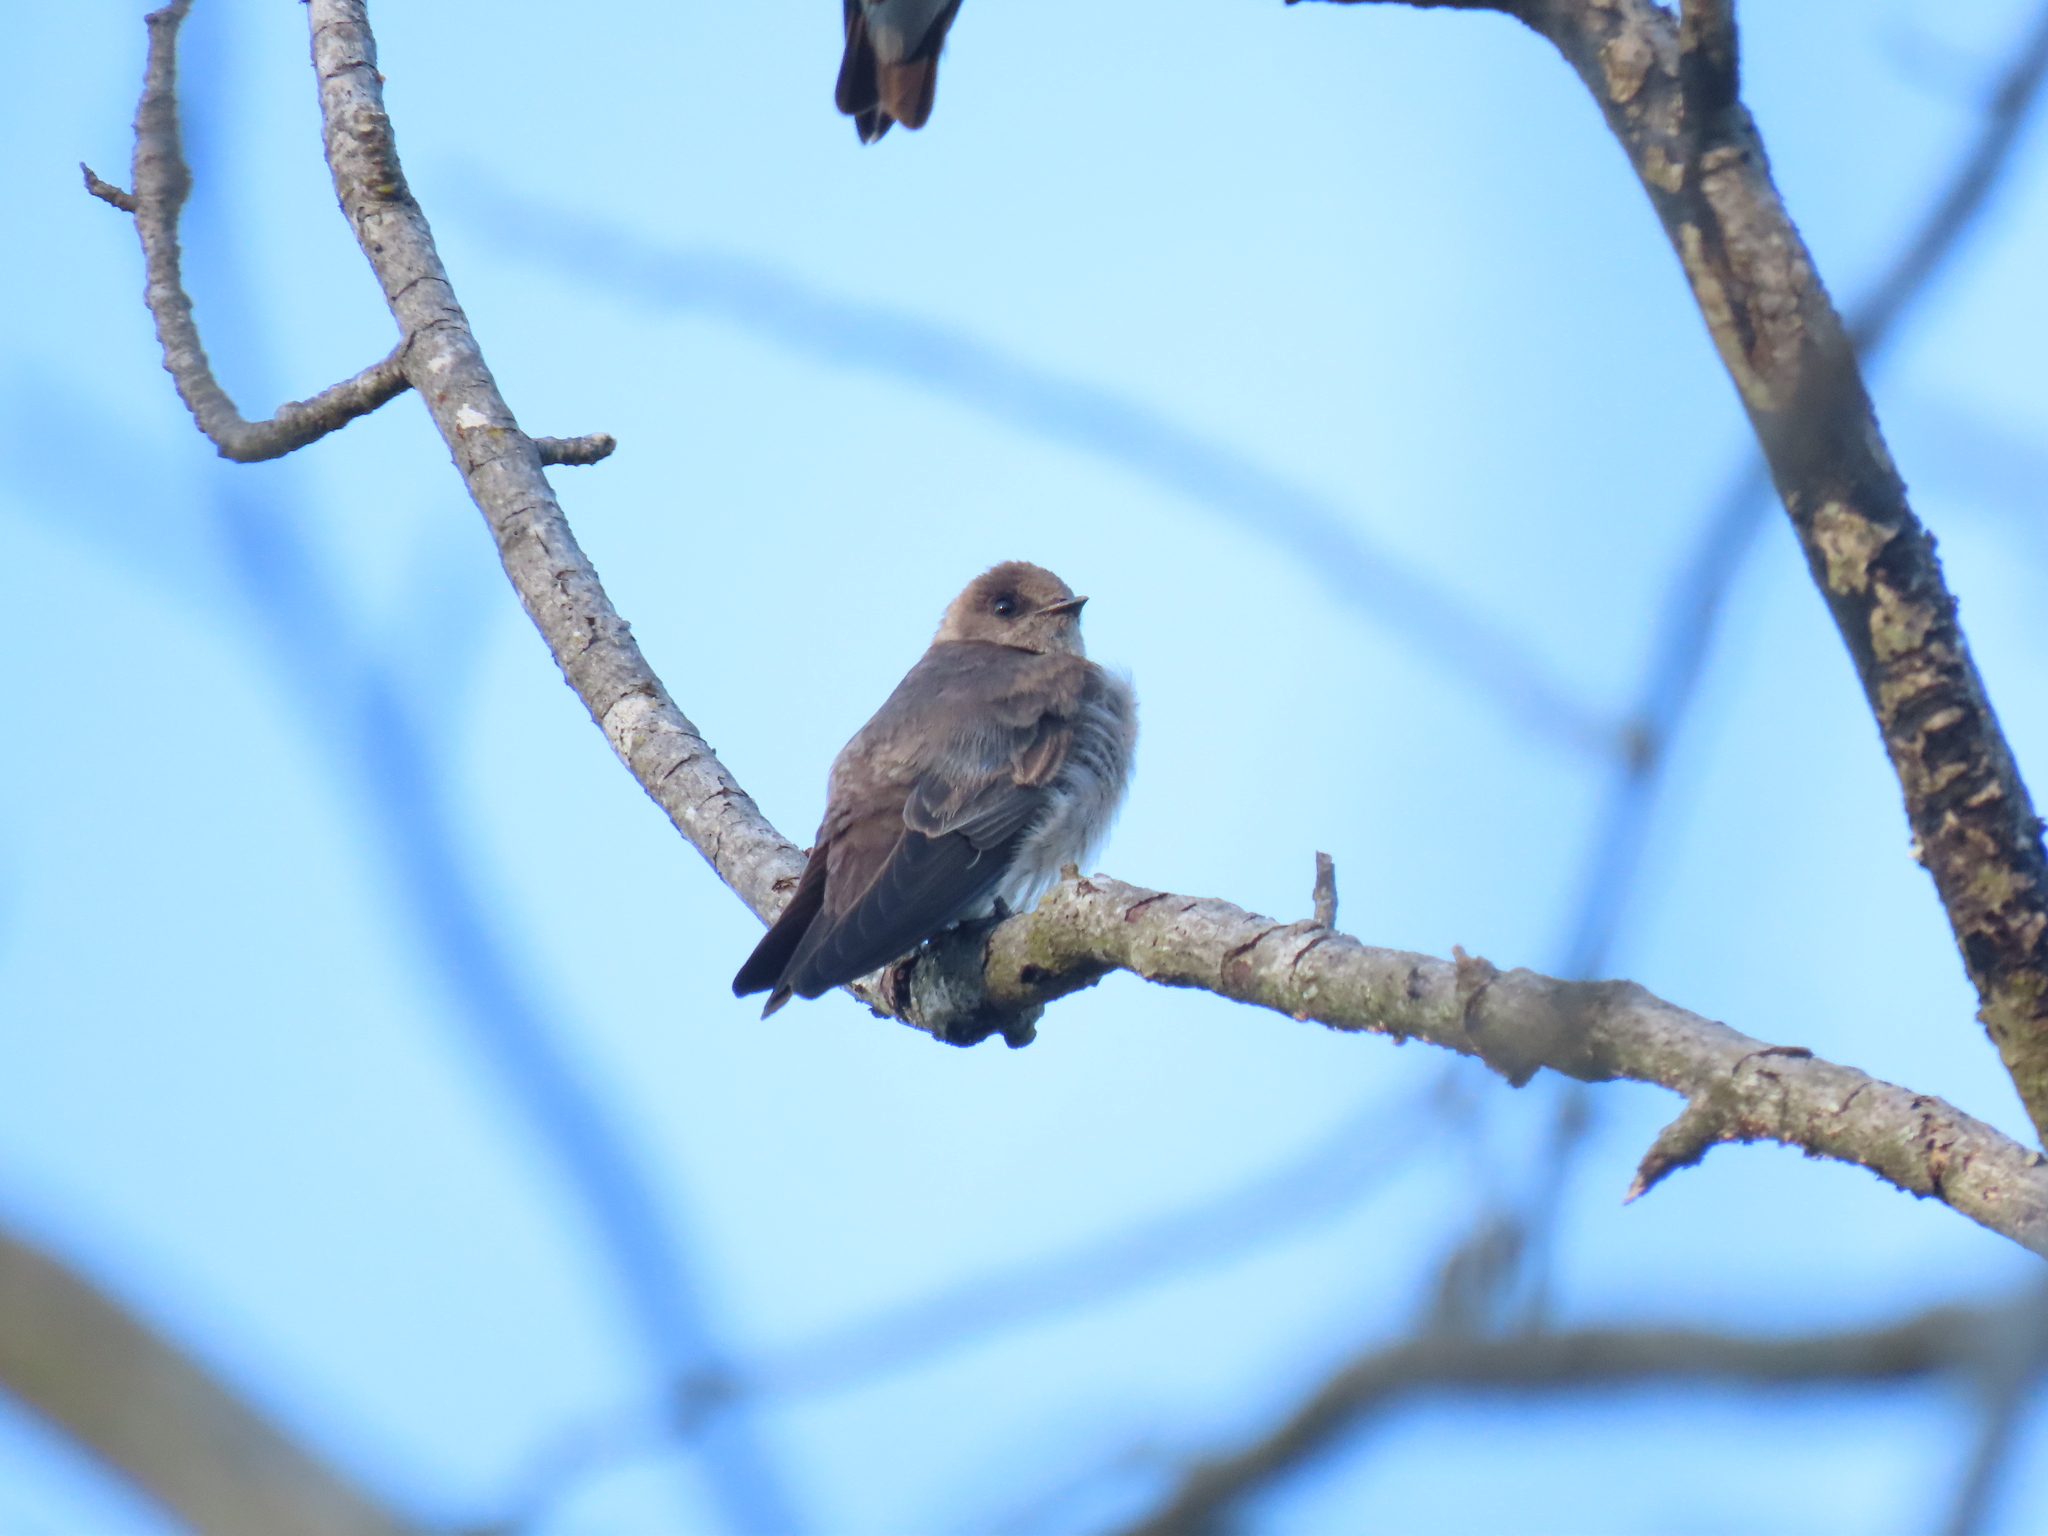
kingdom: Animalia
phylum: Chordata
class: Aves
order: Passeriformes
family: Hirundinidae
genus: Stelgidopteryx
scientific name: Stelgidopteryx serripennis
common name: Northern rough-winged swallow
